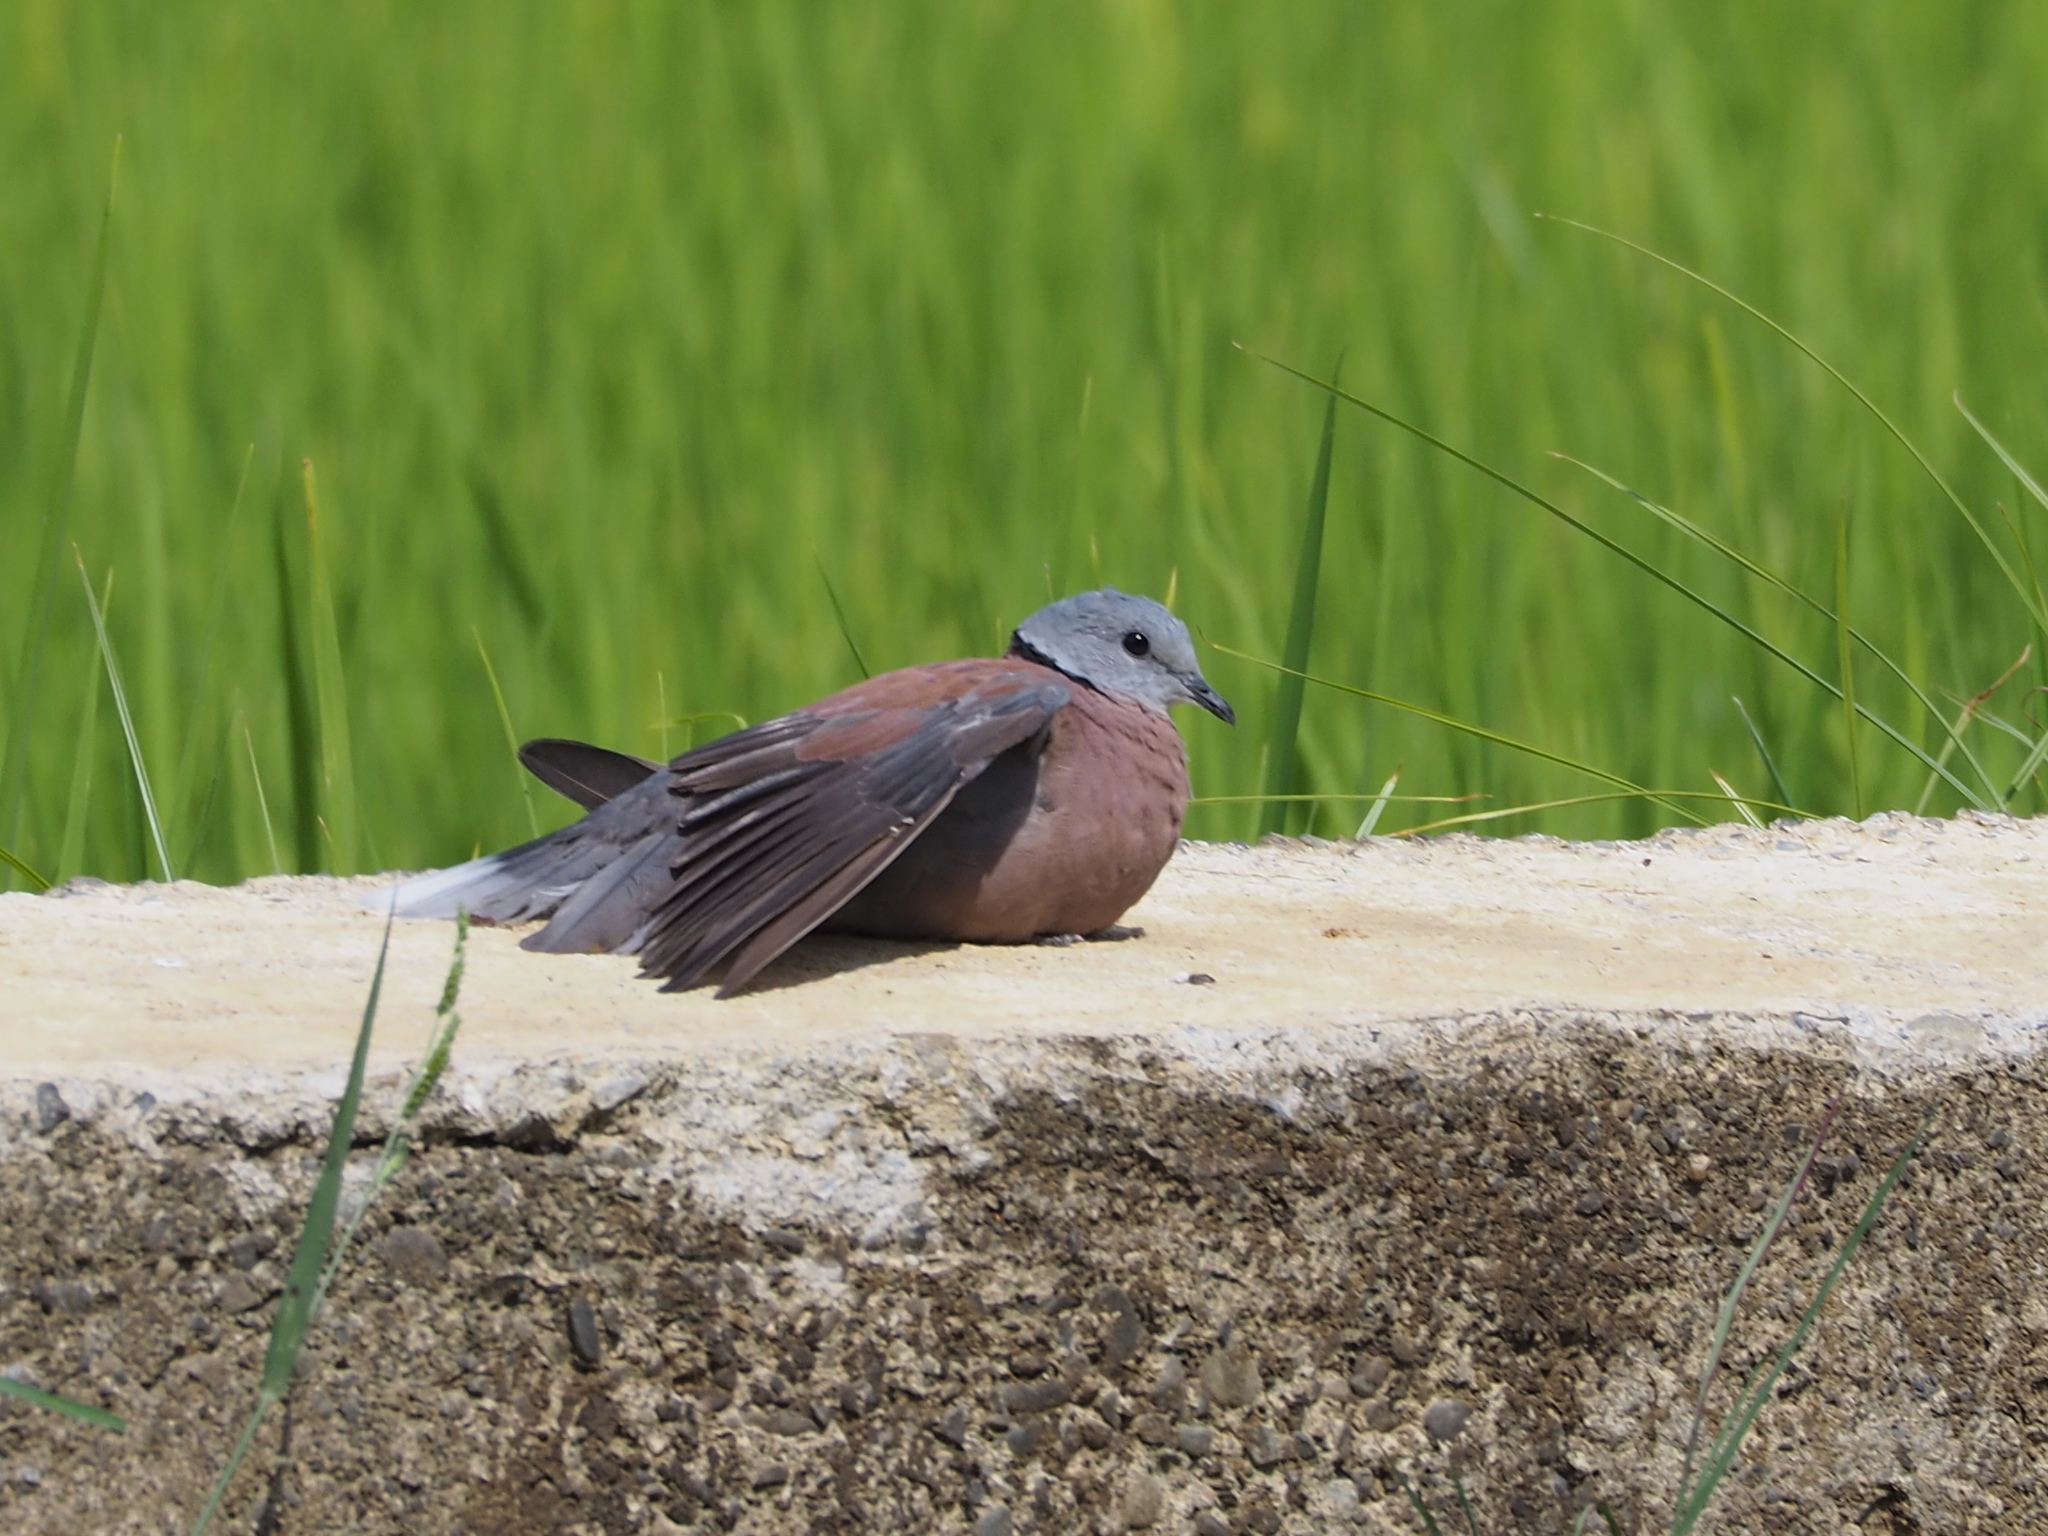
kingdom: Animalia
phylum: Chordata
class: Aves
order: Columbiformes
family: Columbidae
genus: Streptopelia
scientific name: Streptopelia tranquebarica
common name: Red turtle dove
